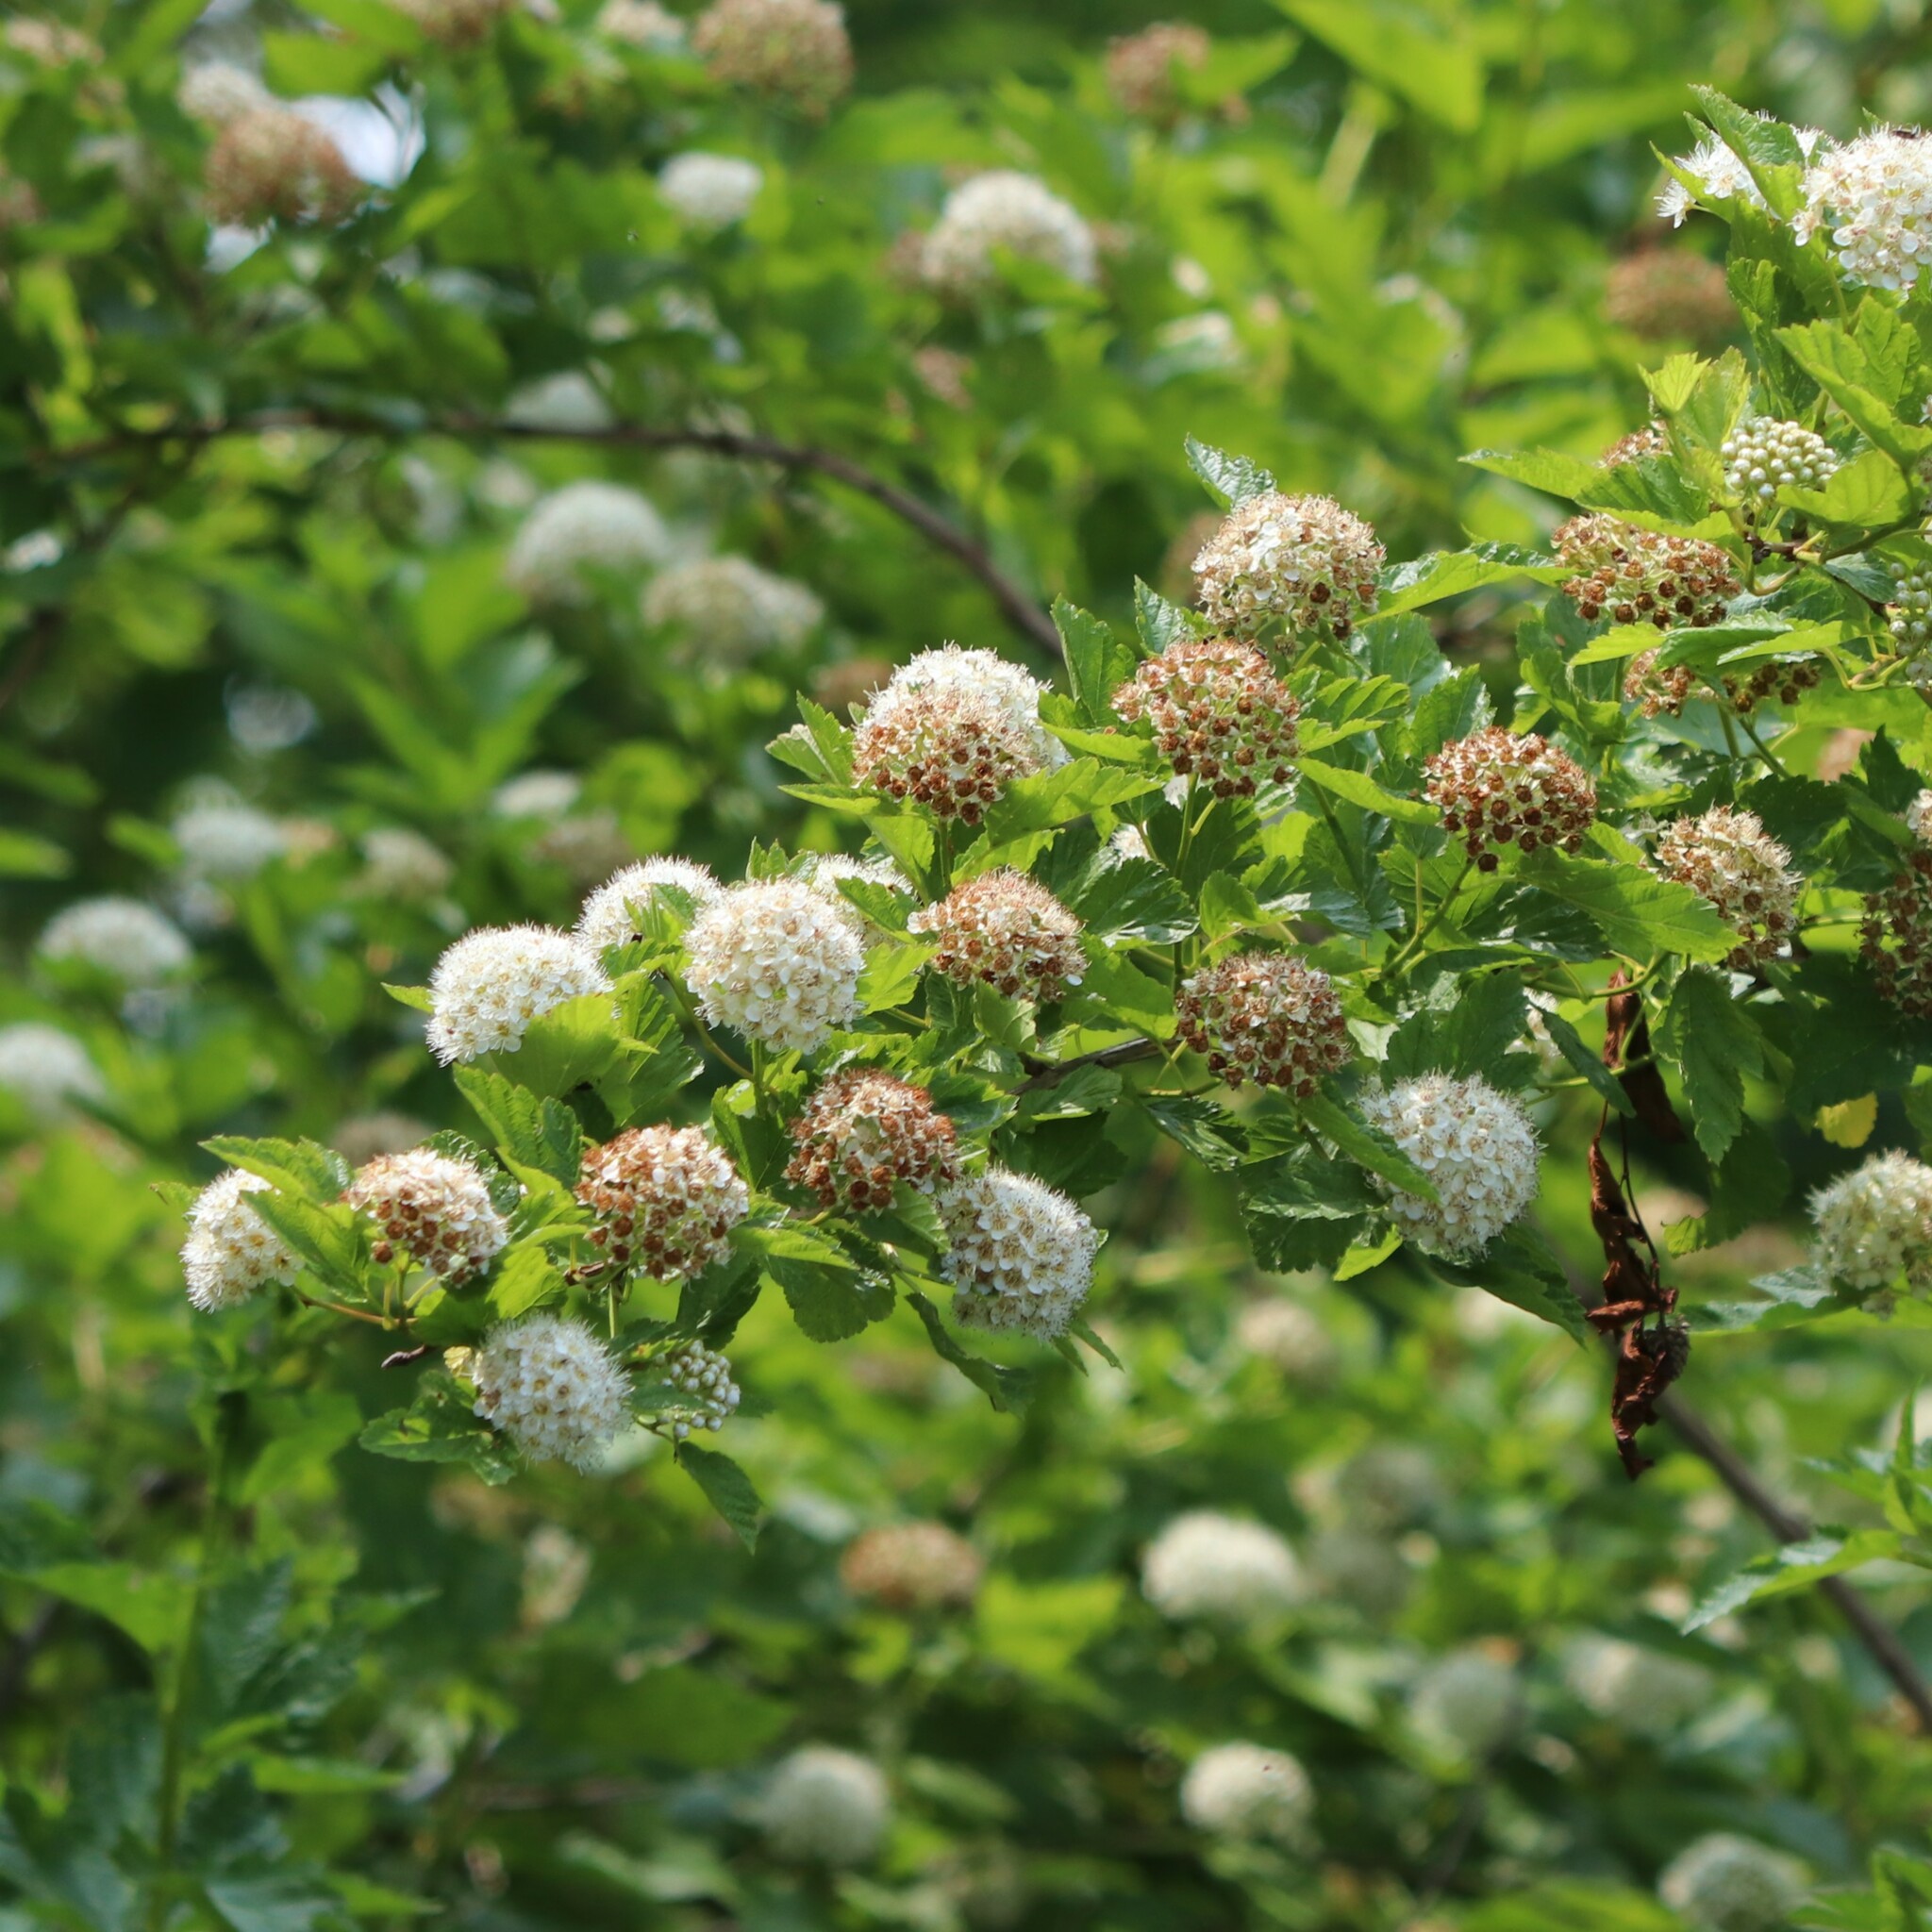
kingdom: Plantae
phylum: Tracheophyta
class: Magnoliopsida
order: Rosales
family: Rosaceae
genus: Physocarpus
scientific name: Physocarpus opulifolius
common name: Ninebark
